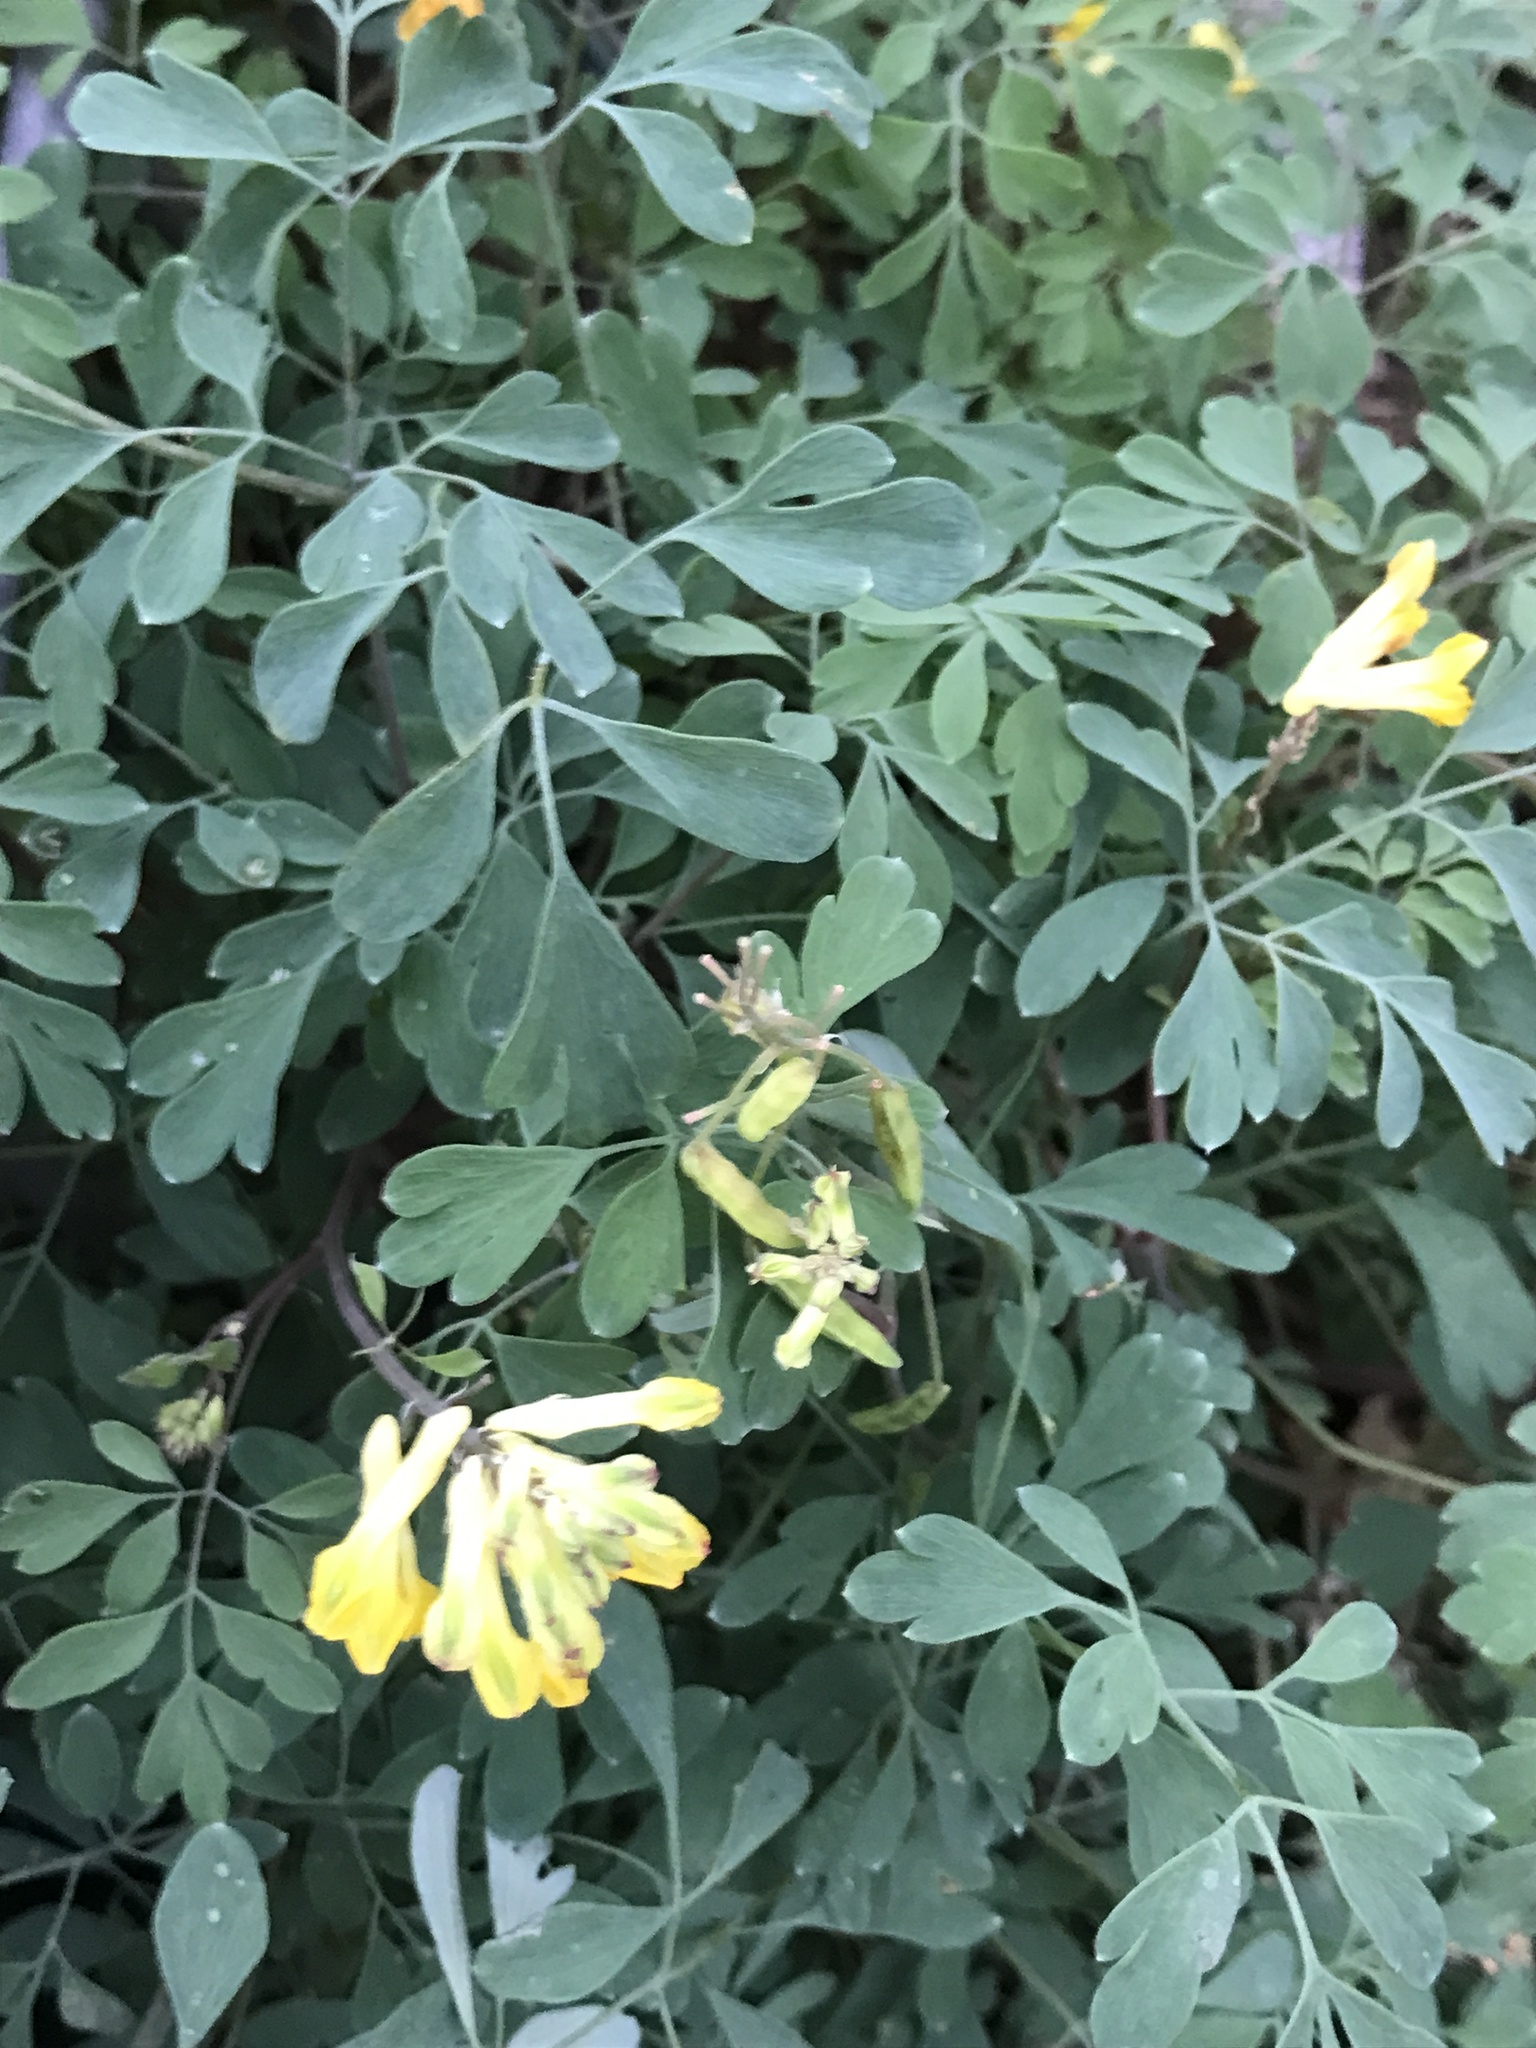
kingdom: Plantae
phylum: Tracheophyta
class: Magnoliopsida
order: Ranunculales
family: Papaveraceae
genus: Pseudofumaria
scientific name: Pseudofumaria lutea
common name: Yellow corydalis
